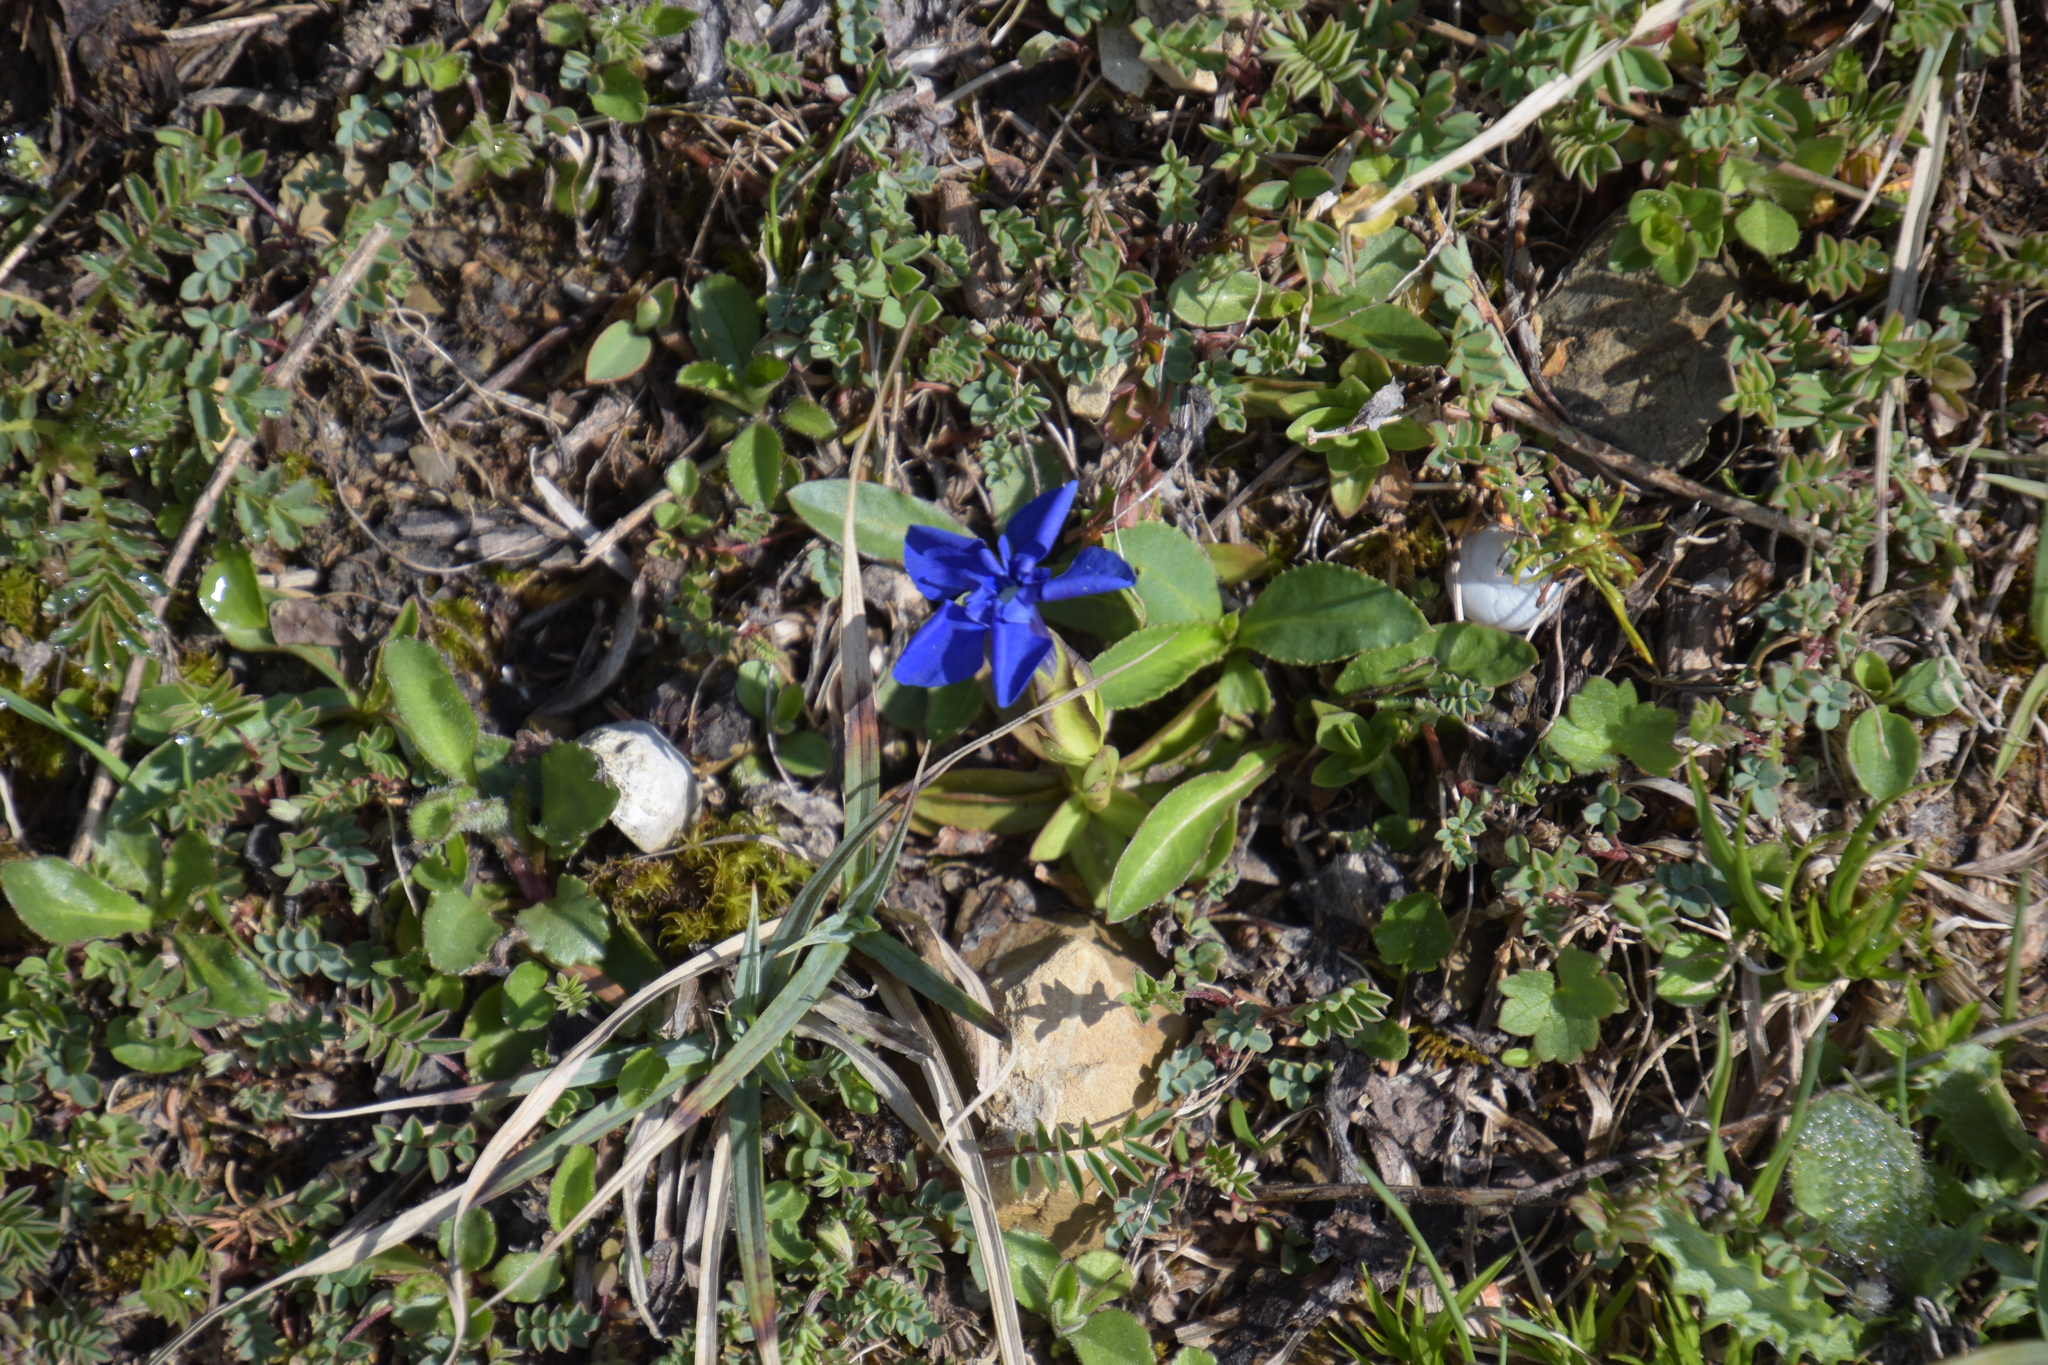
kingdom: Plantae
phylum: Tracheophyta
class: Magnoliopsida
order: Gentianales
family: Gentianaceae
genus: Gentiana
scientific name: Gentiana verna
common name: Spring gentian
